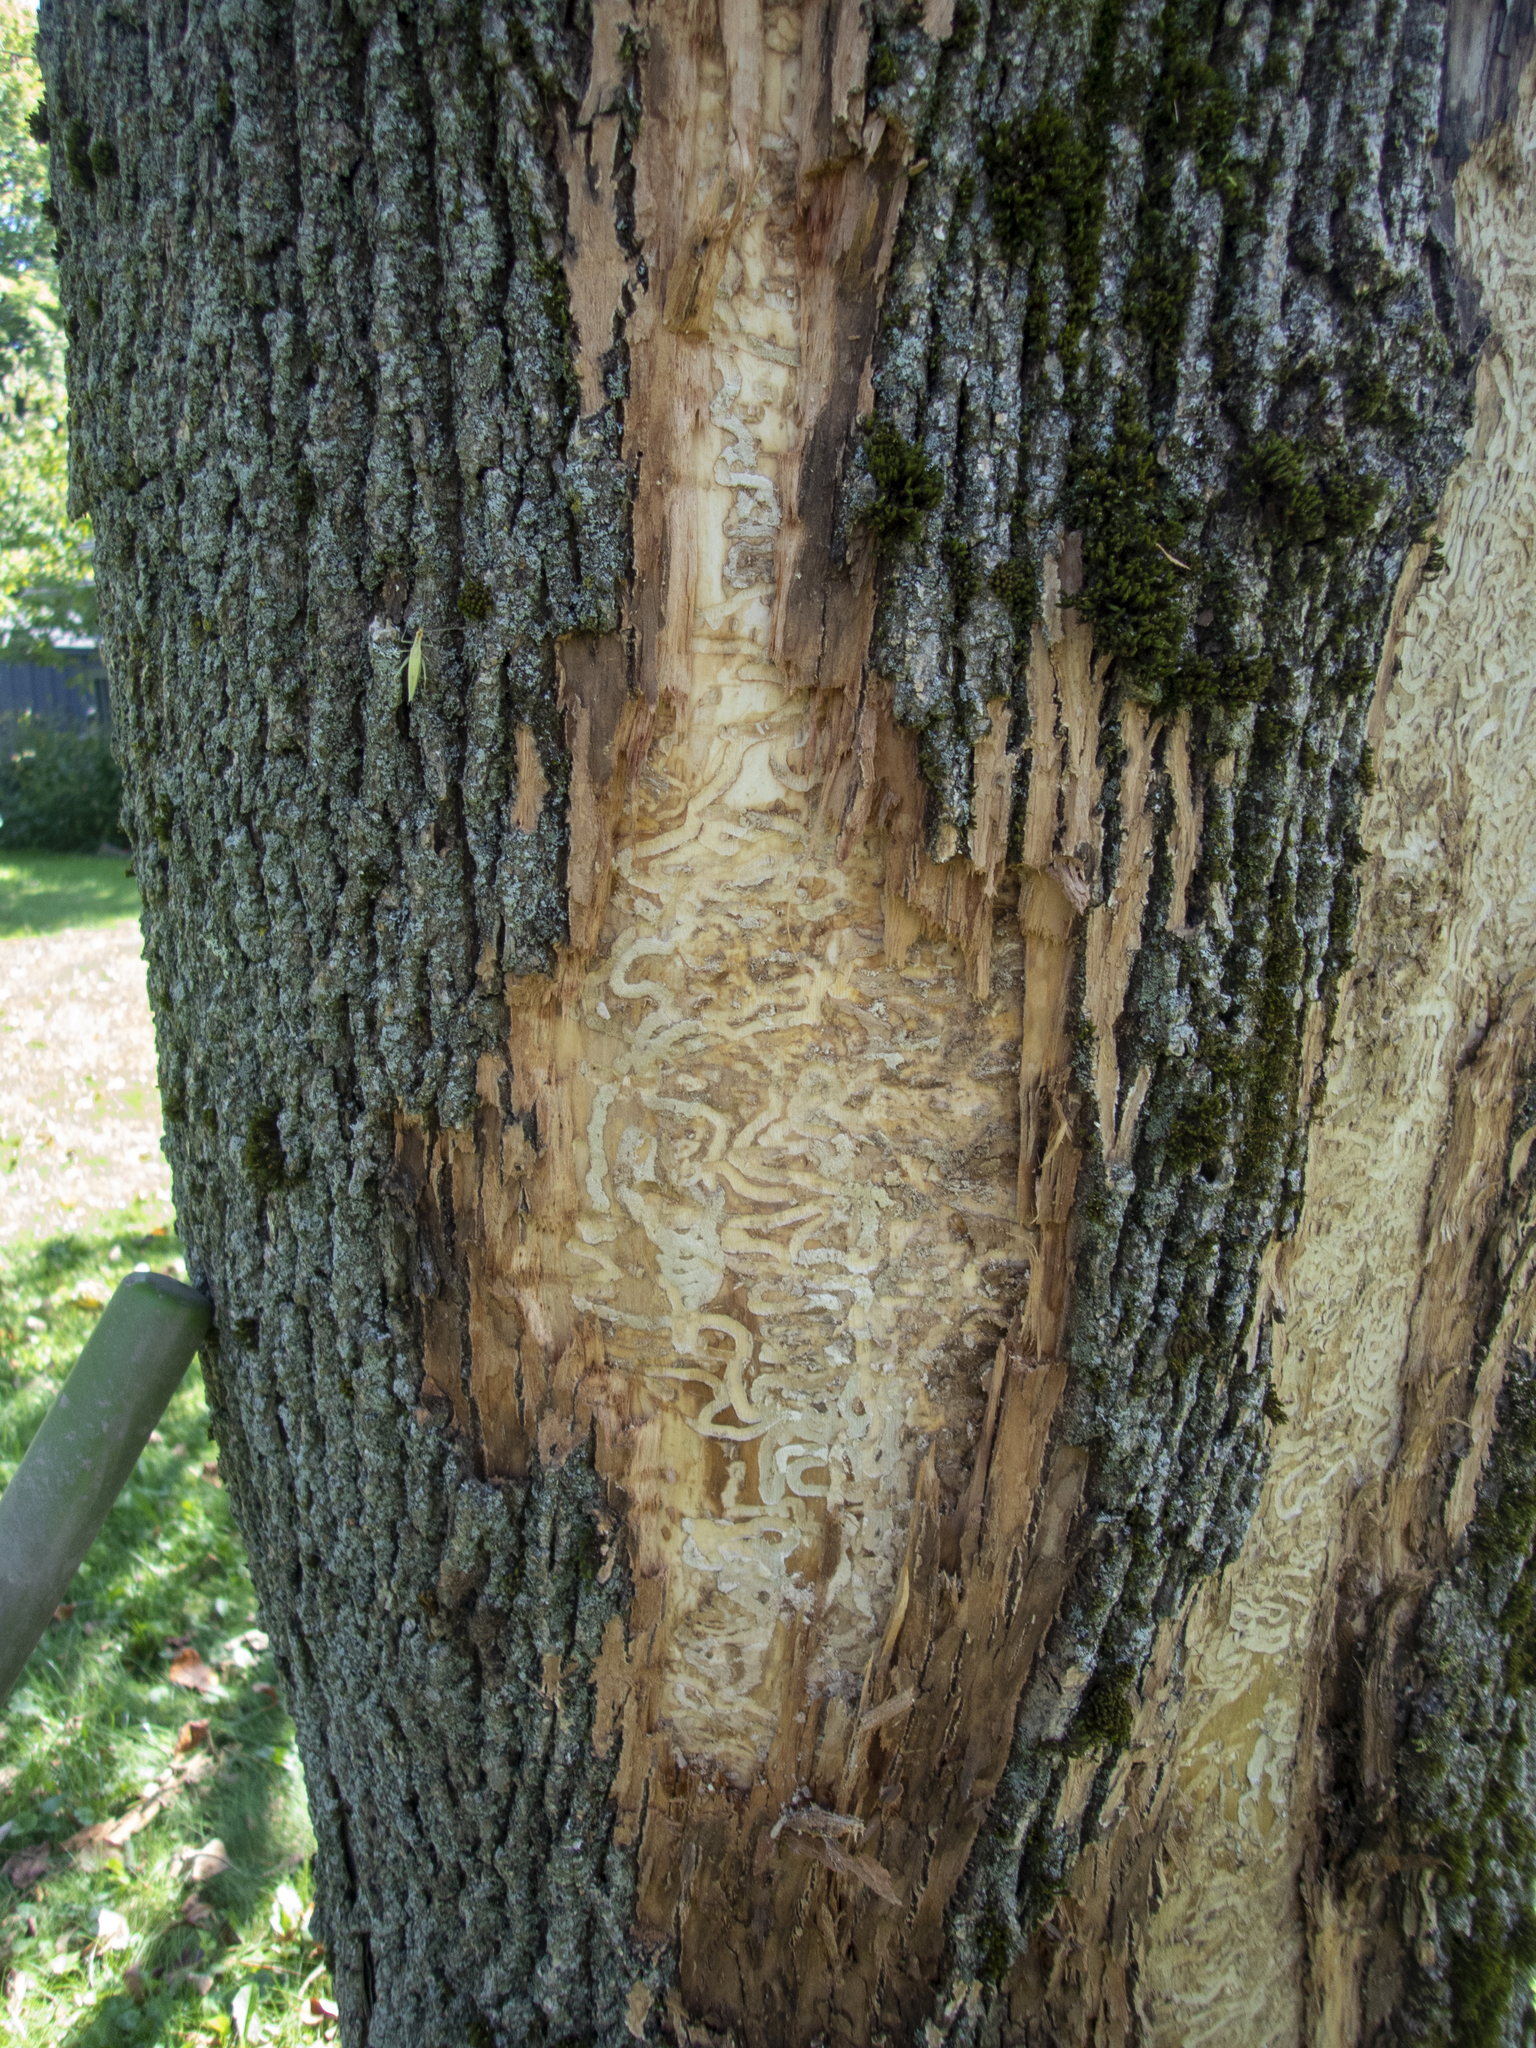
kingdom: Animalia
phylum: Arthropoda
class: Insecta
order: Coleoptera
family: Buprestidae
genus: Agrilus
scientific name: Agrilus planipennis
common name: Emerald ash borer
